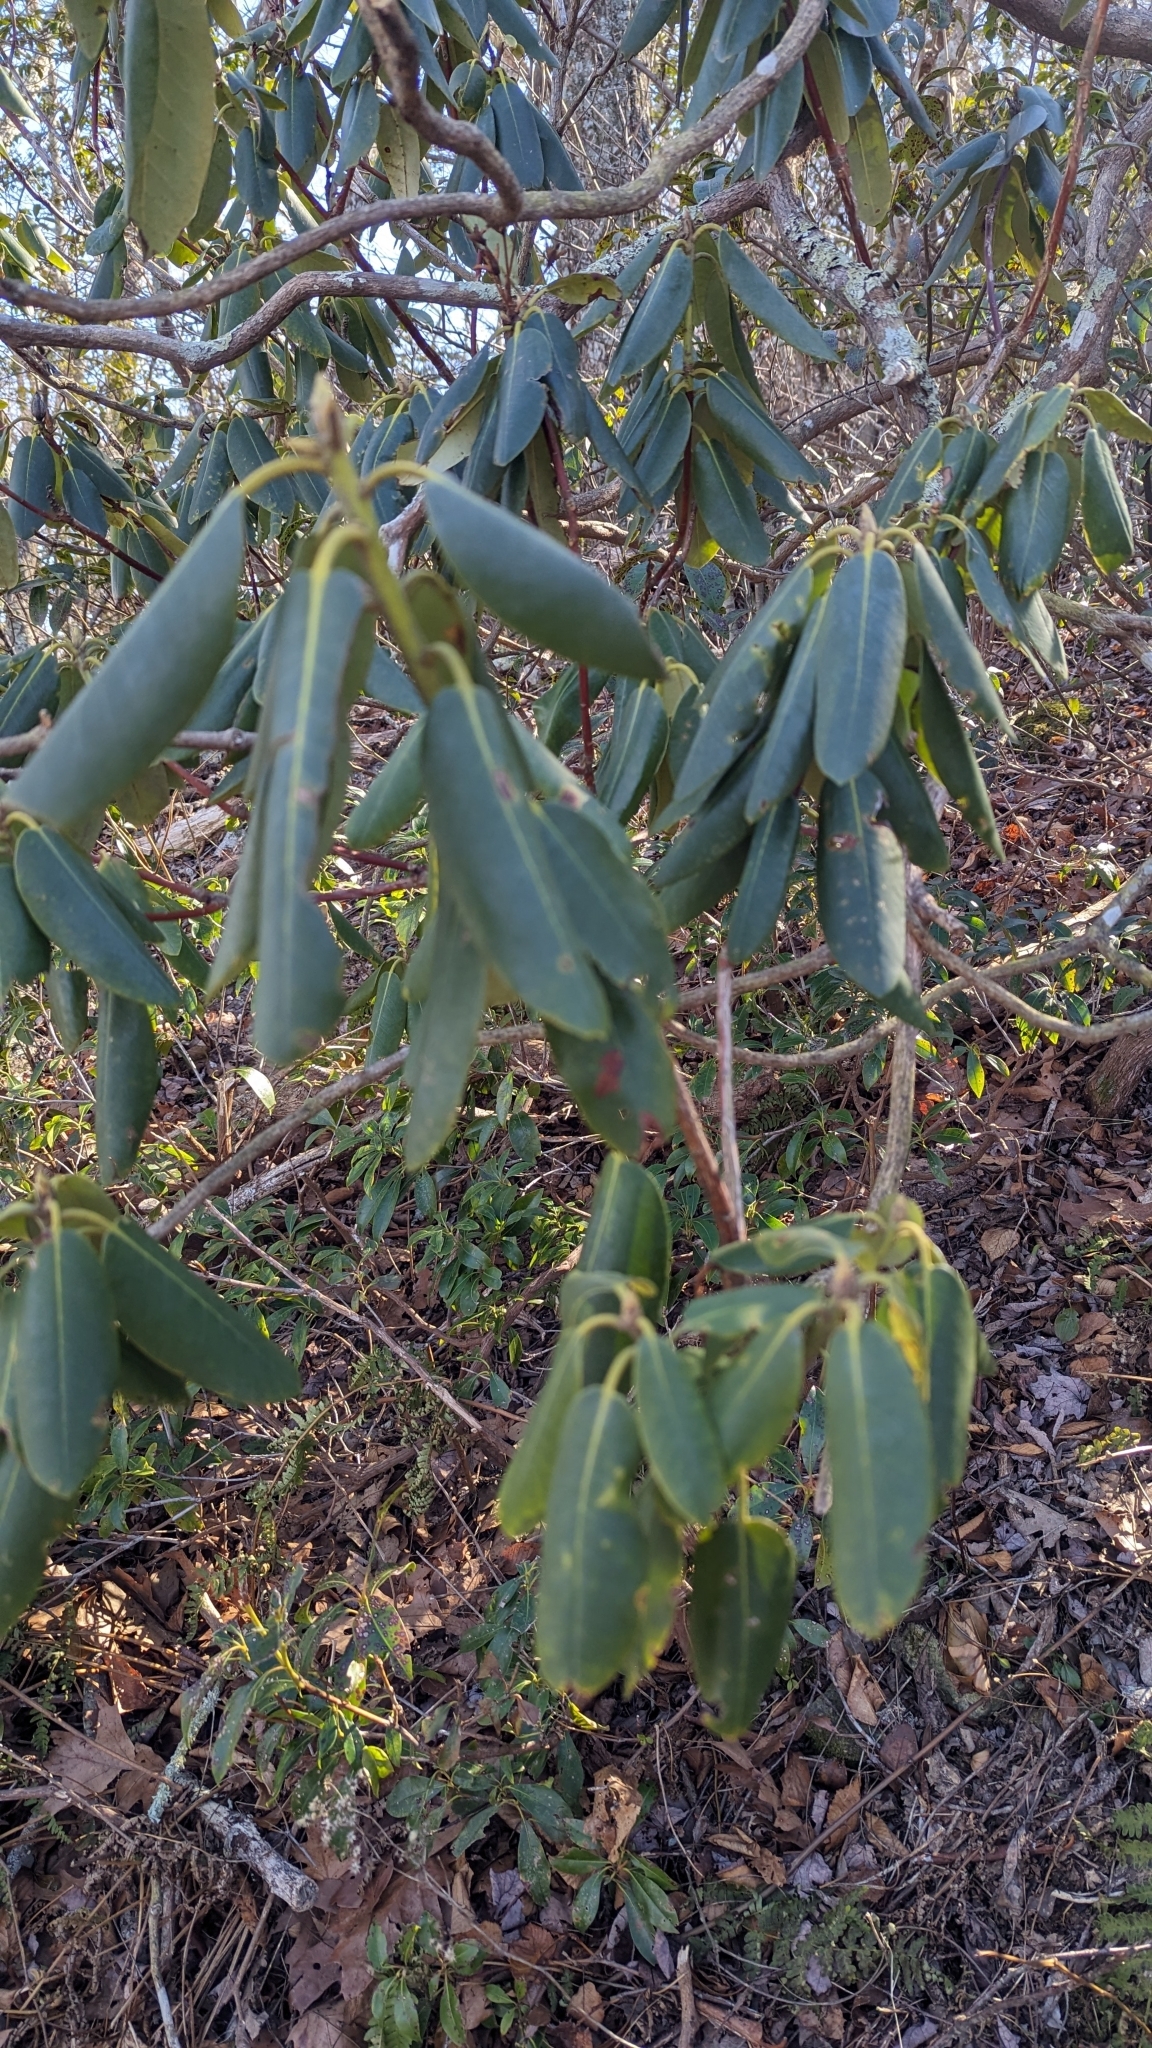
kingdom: Plantae
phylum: Tracheophyta
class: Magnoliopsida
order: Ericales
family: Ericaceae
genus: Rhododendron
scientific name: Rhododendron catawbiense
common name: Catawba rhododendron
